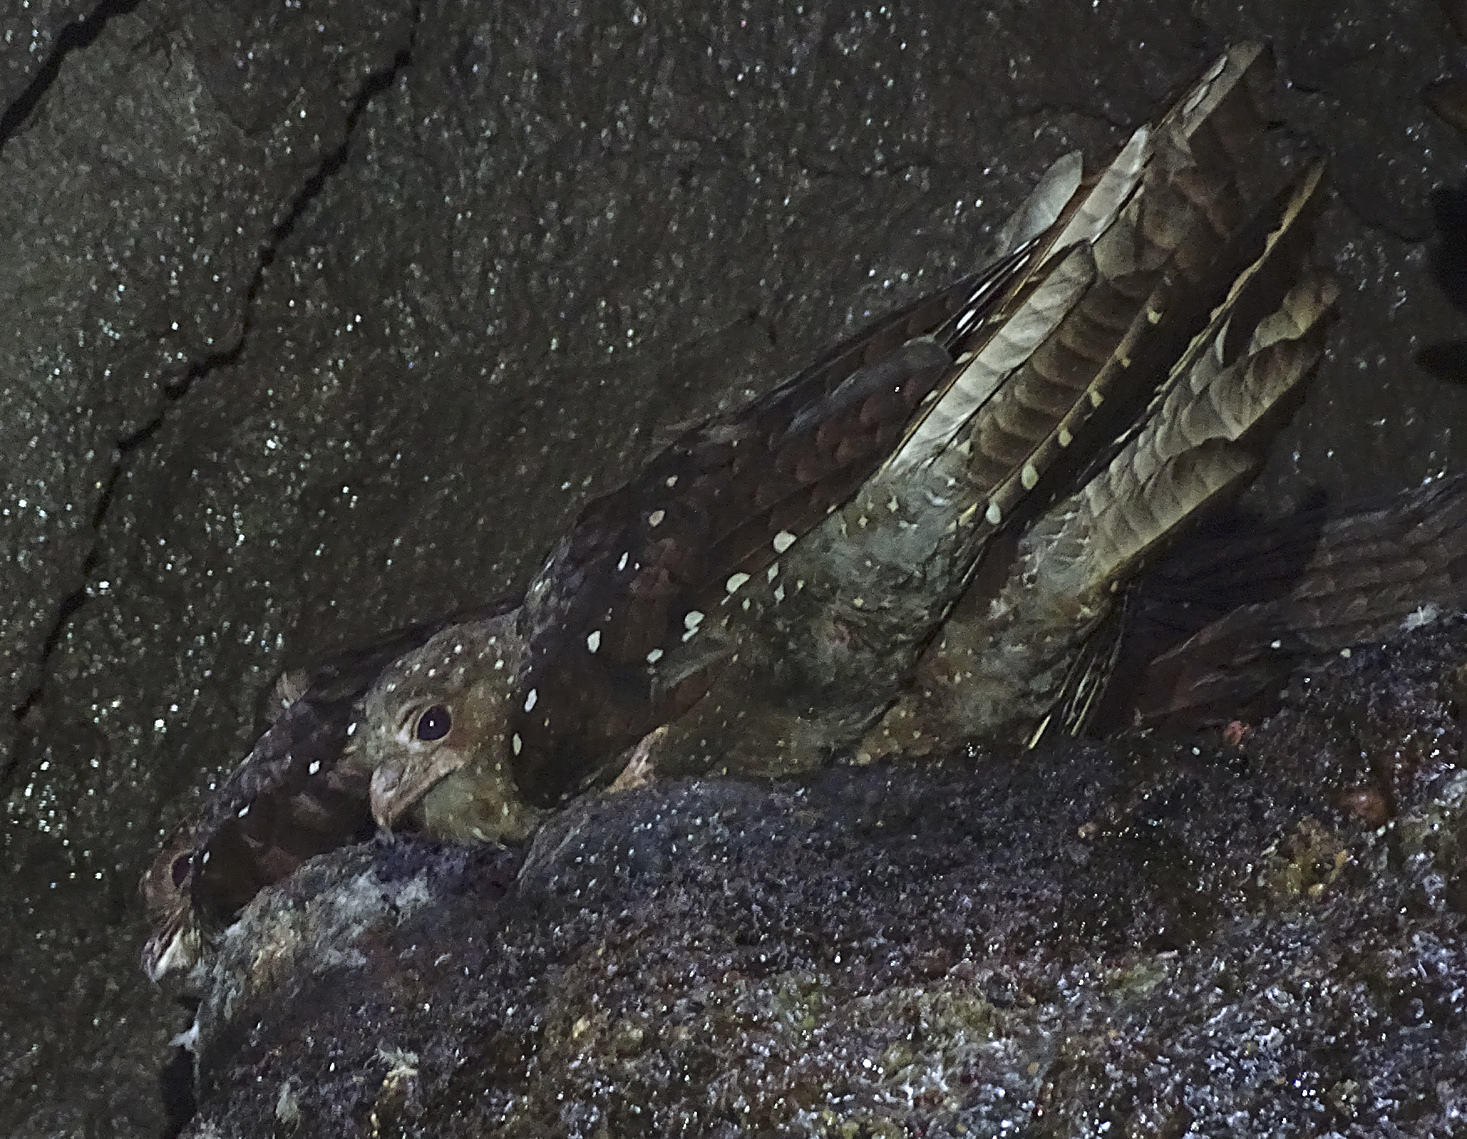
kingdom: Animalia
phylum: Chordata
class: Aves
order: Steatornithiformes
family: Steatornithidae
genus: Steatornis
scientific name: Steatornis caripensis
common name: Oilbird
